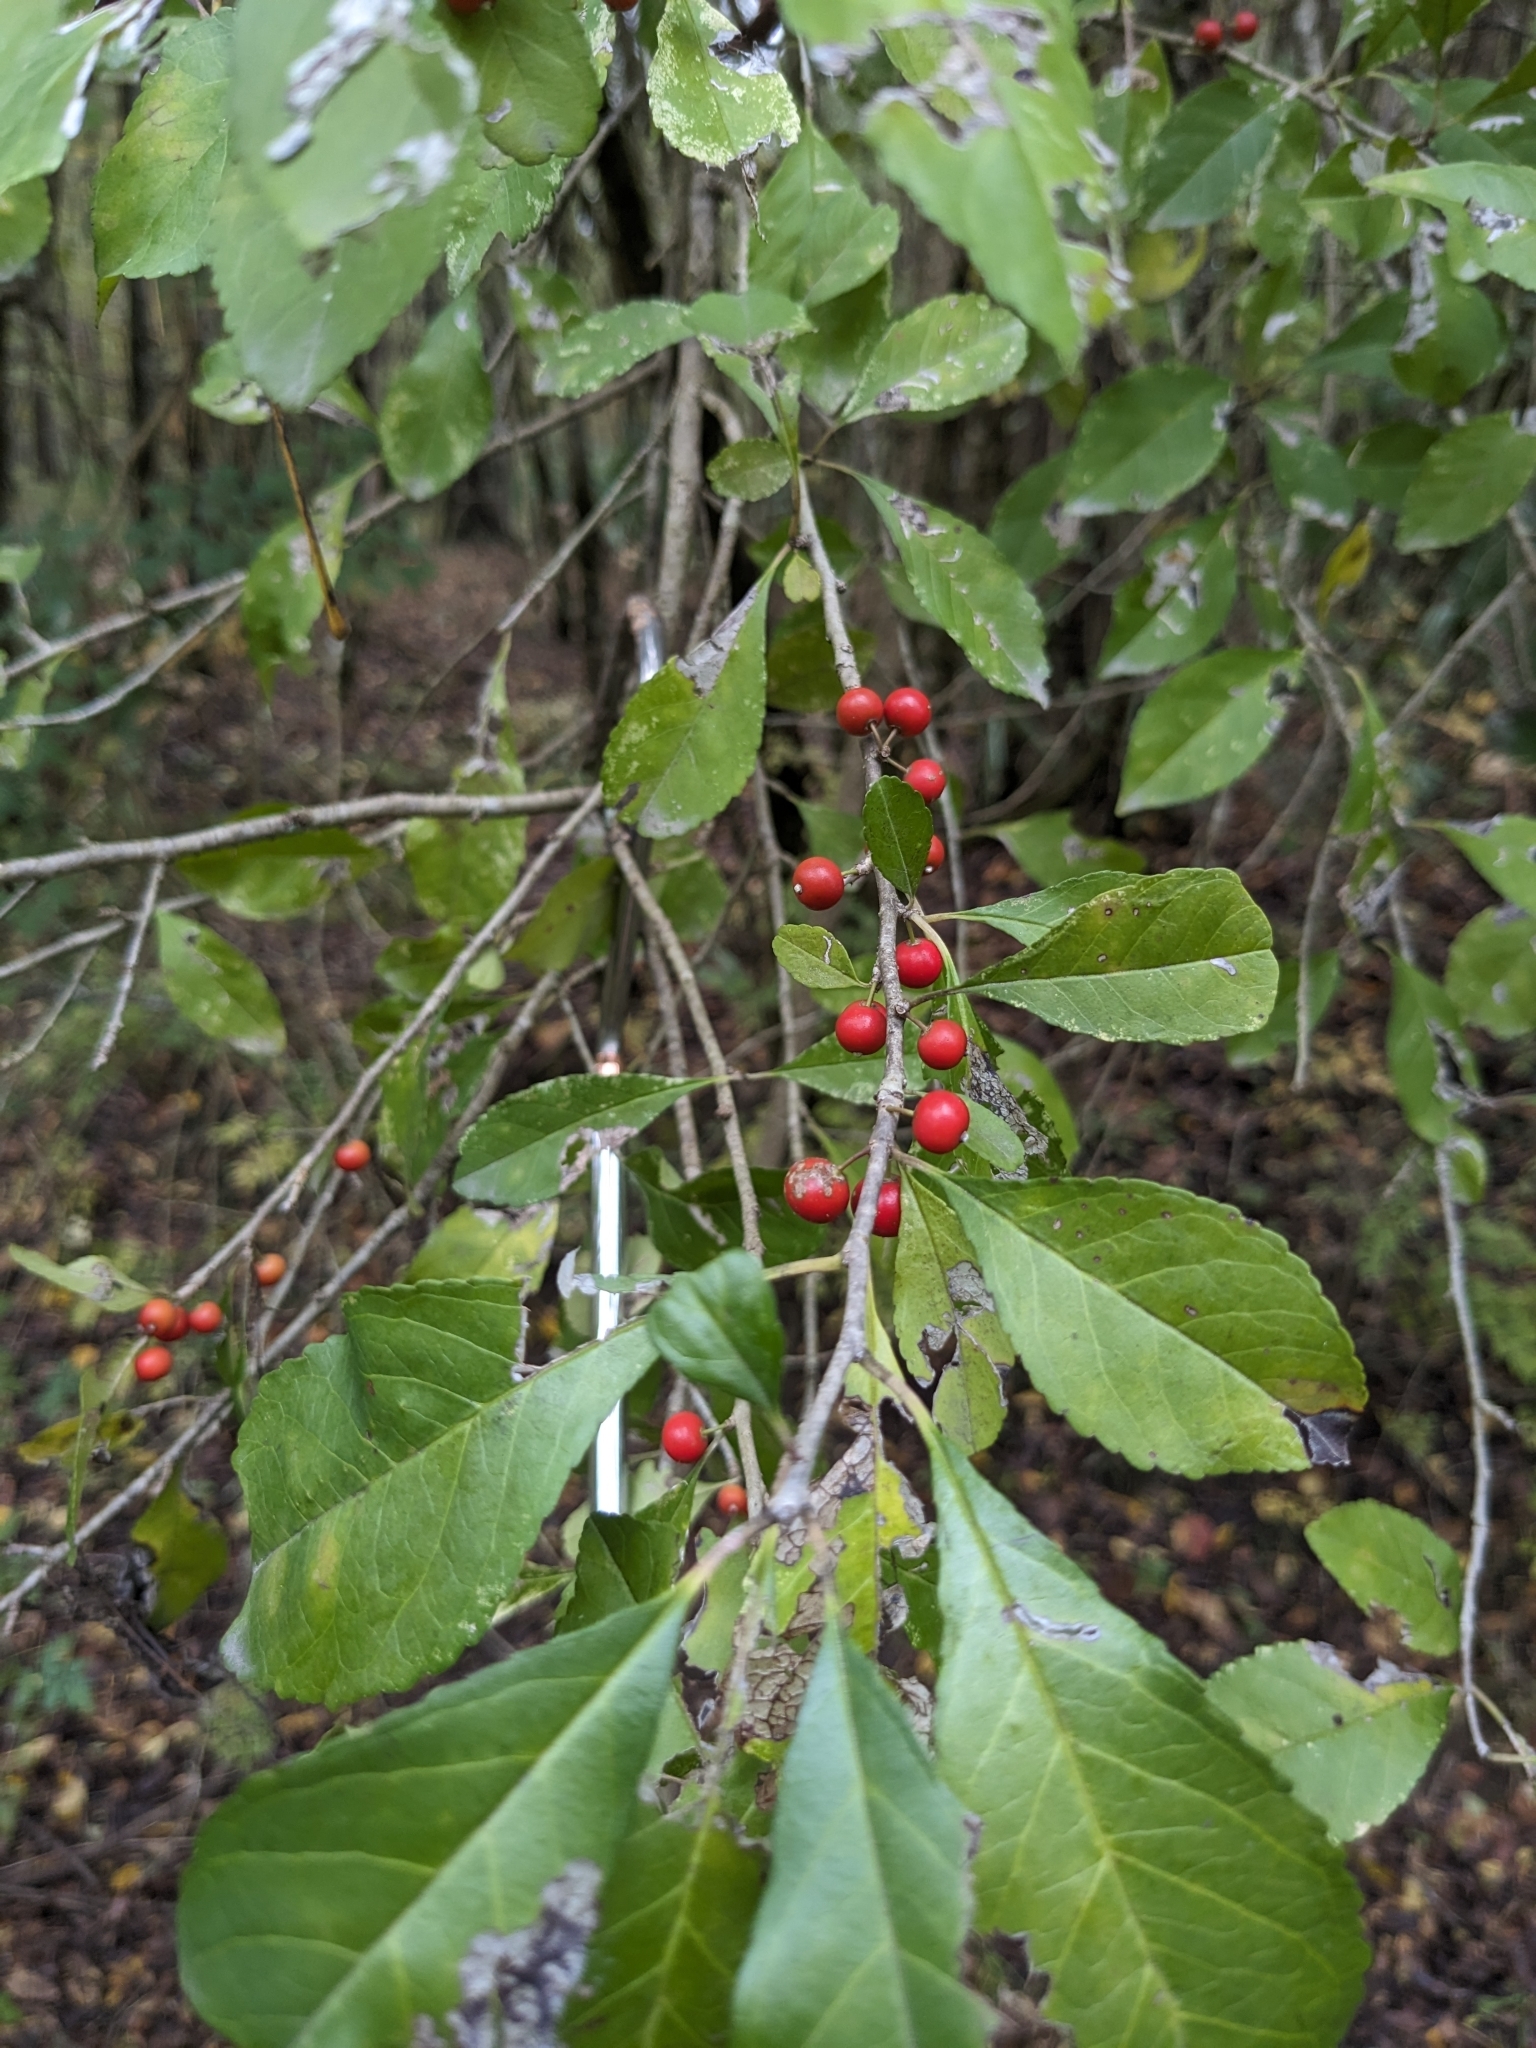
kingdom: Plantae
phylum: Tracheophyta
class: Magnoliopsida
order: Aquifoliales
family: Aquifoliaceae
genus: Ilex
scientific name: Ilex decidua
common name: Possum-haw
